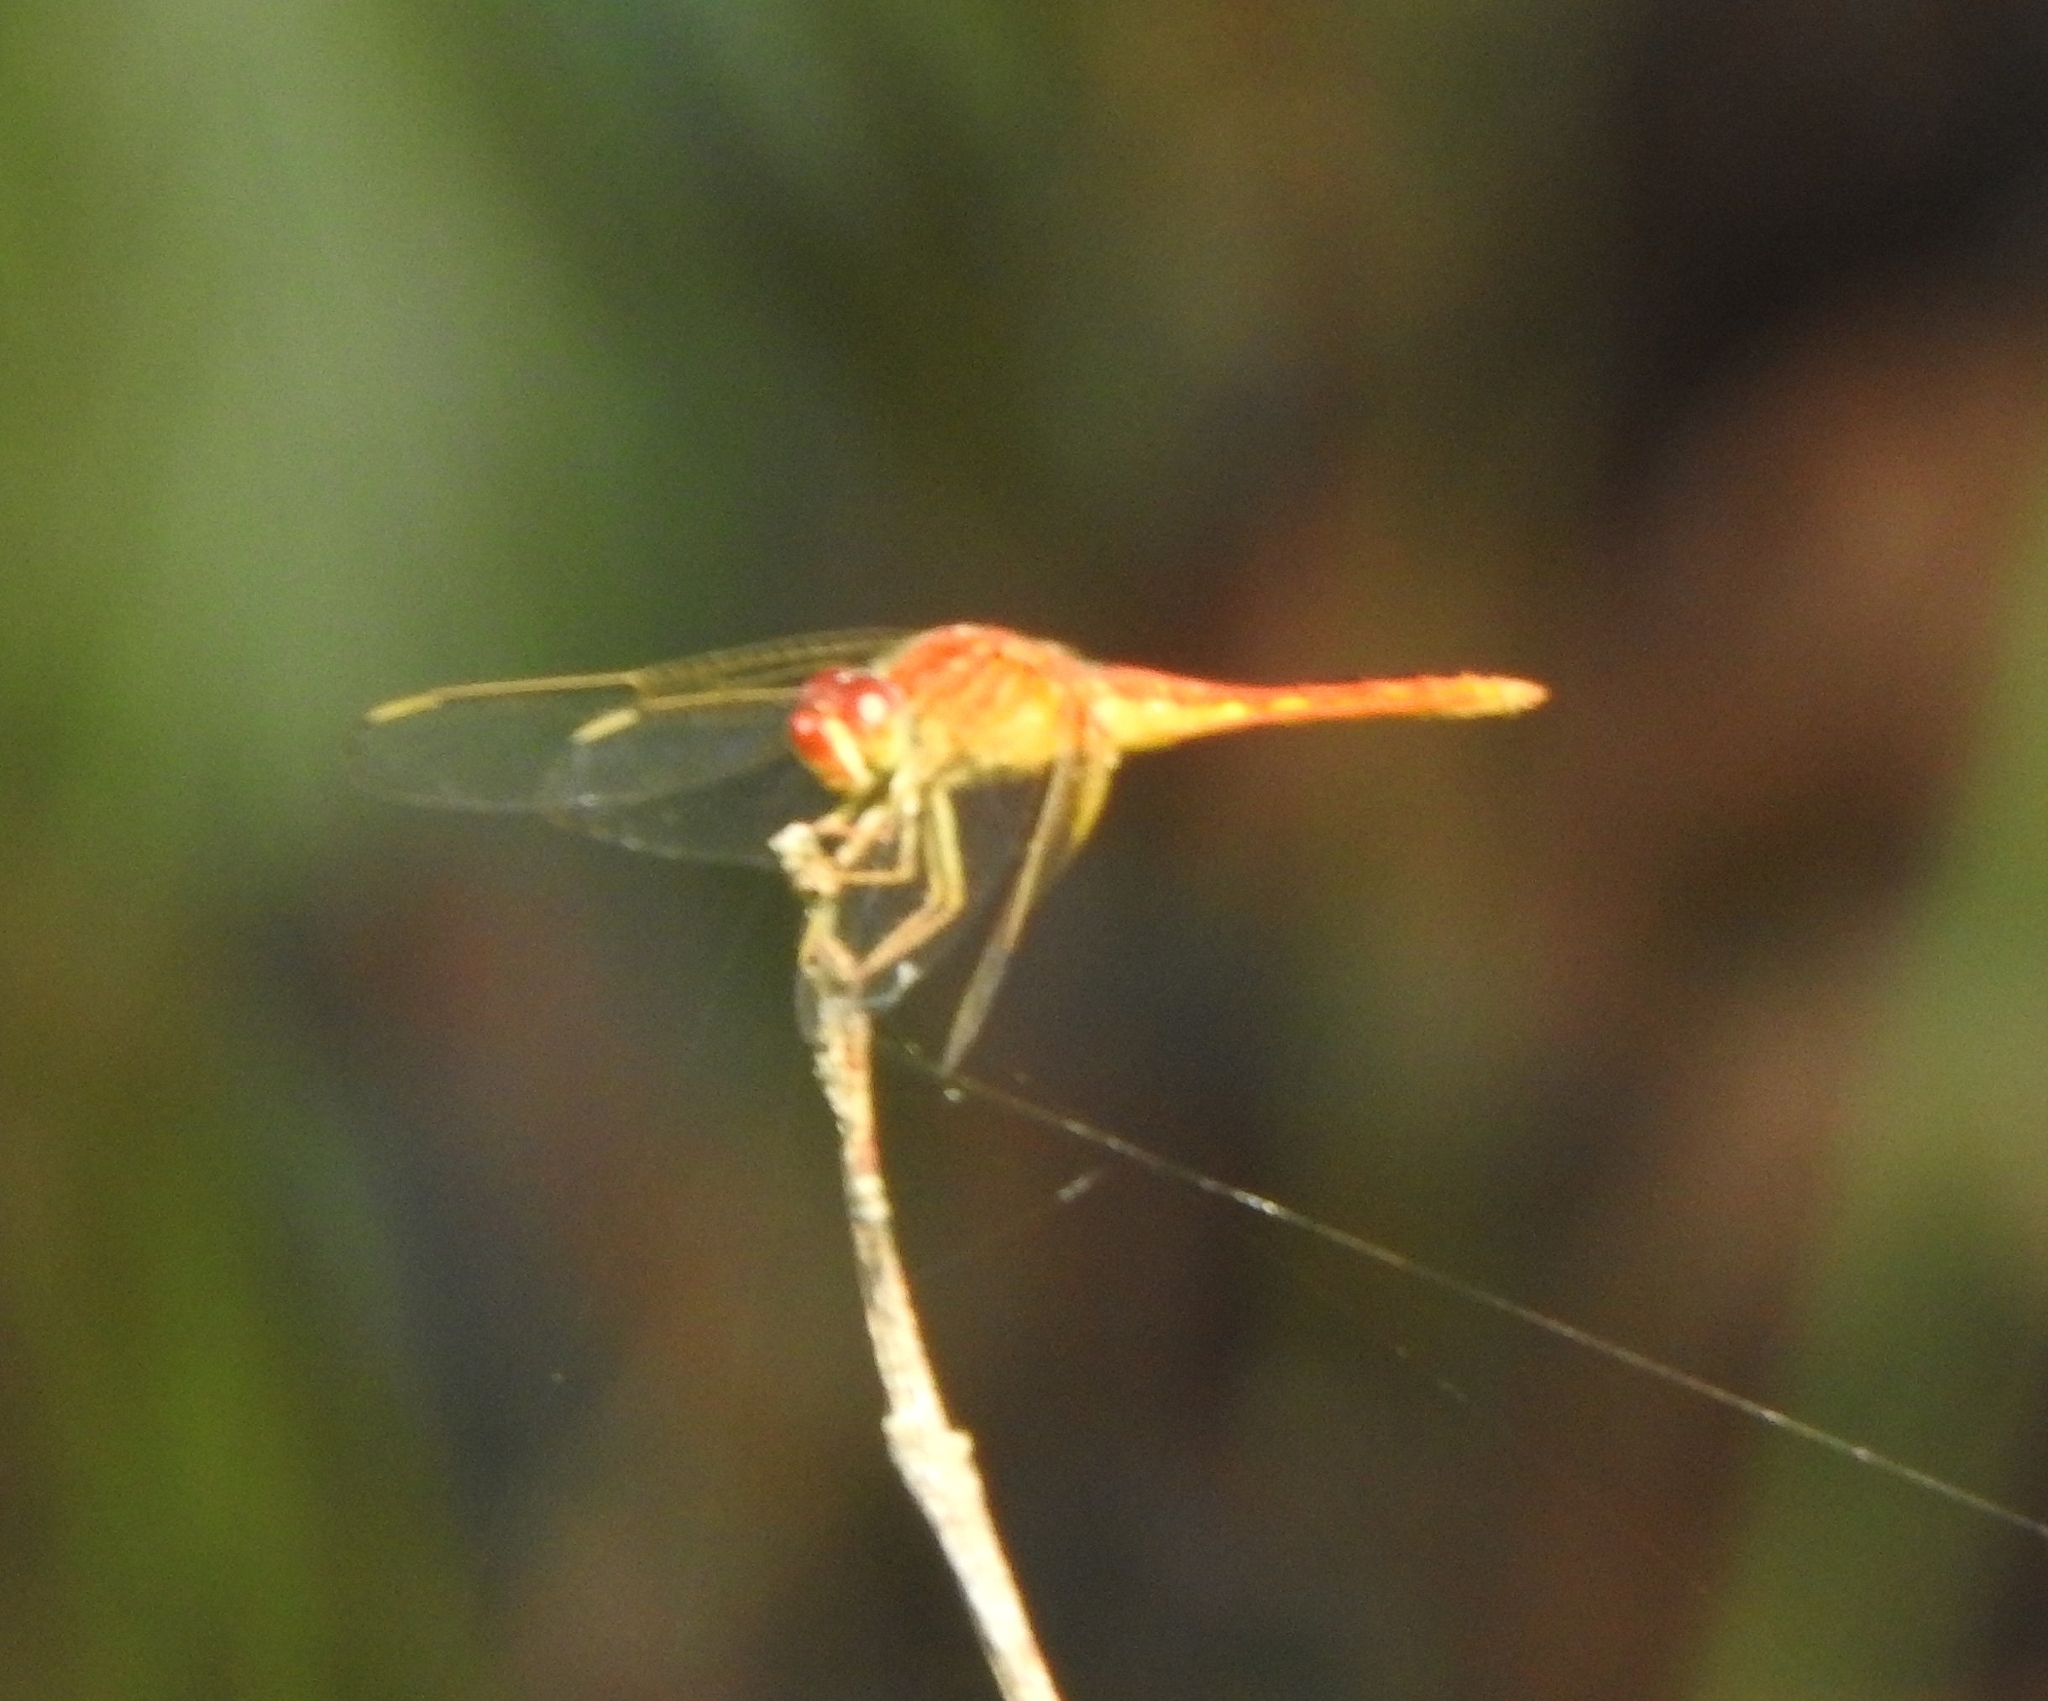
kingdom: Animalia
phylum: Arthropoda
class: Insecta
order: Odonata
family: Libellulidae
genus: Crocothemis
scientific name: Crocothemis servilia
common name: Scarlet skimmer
